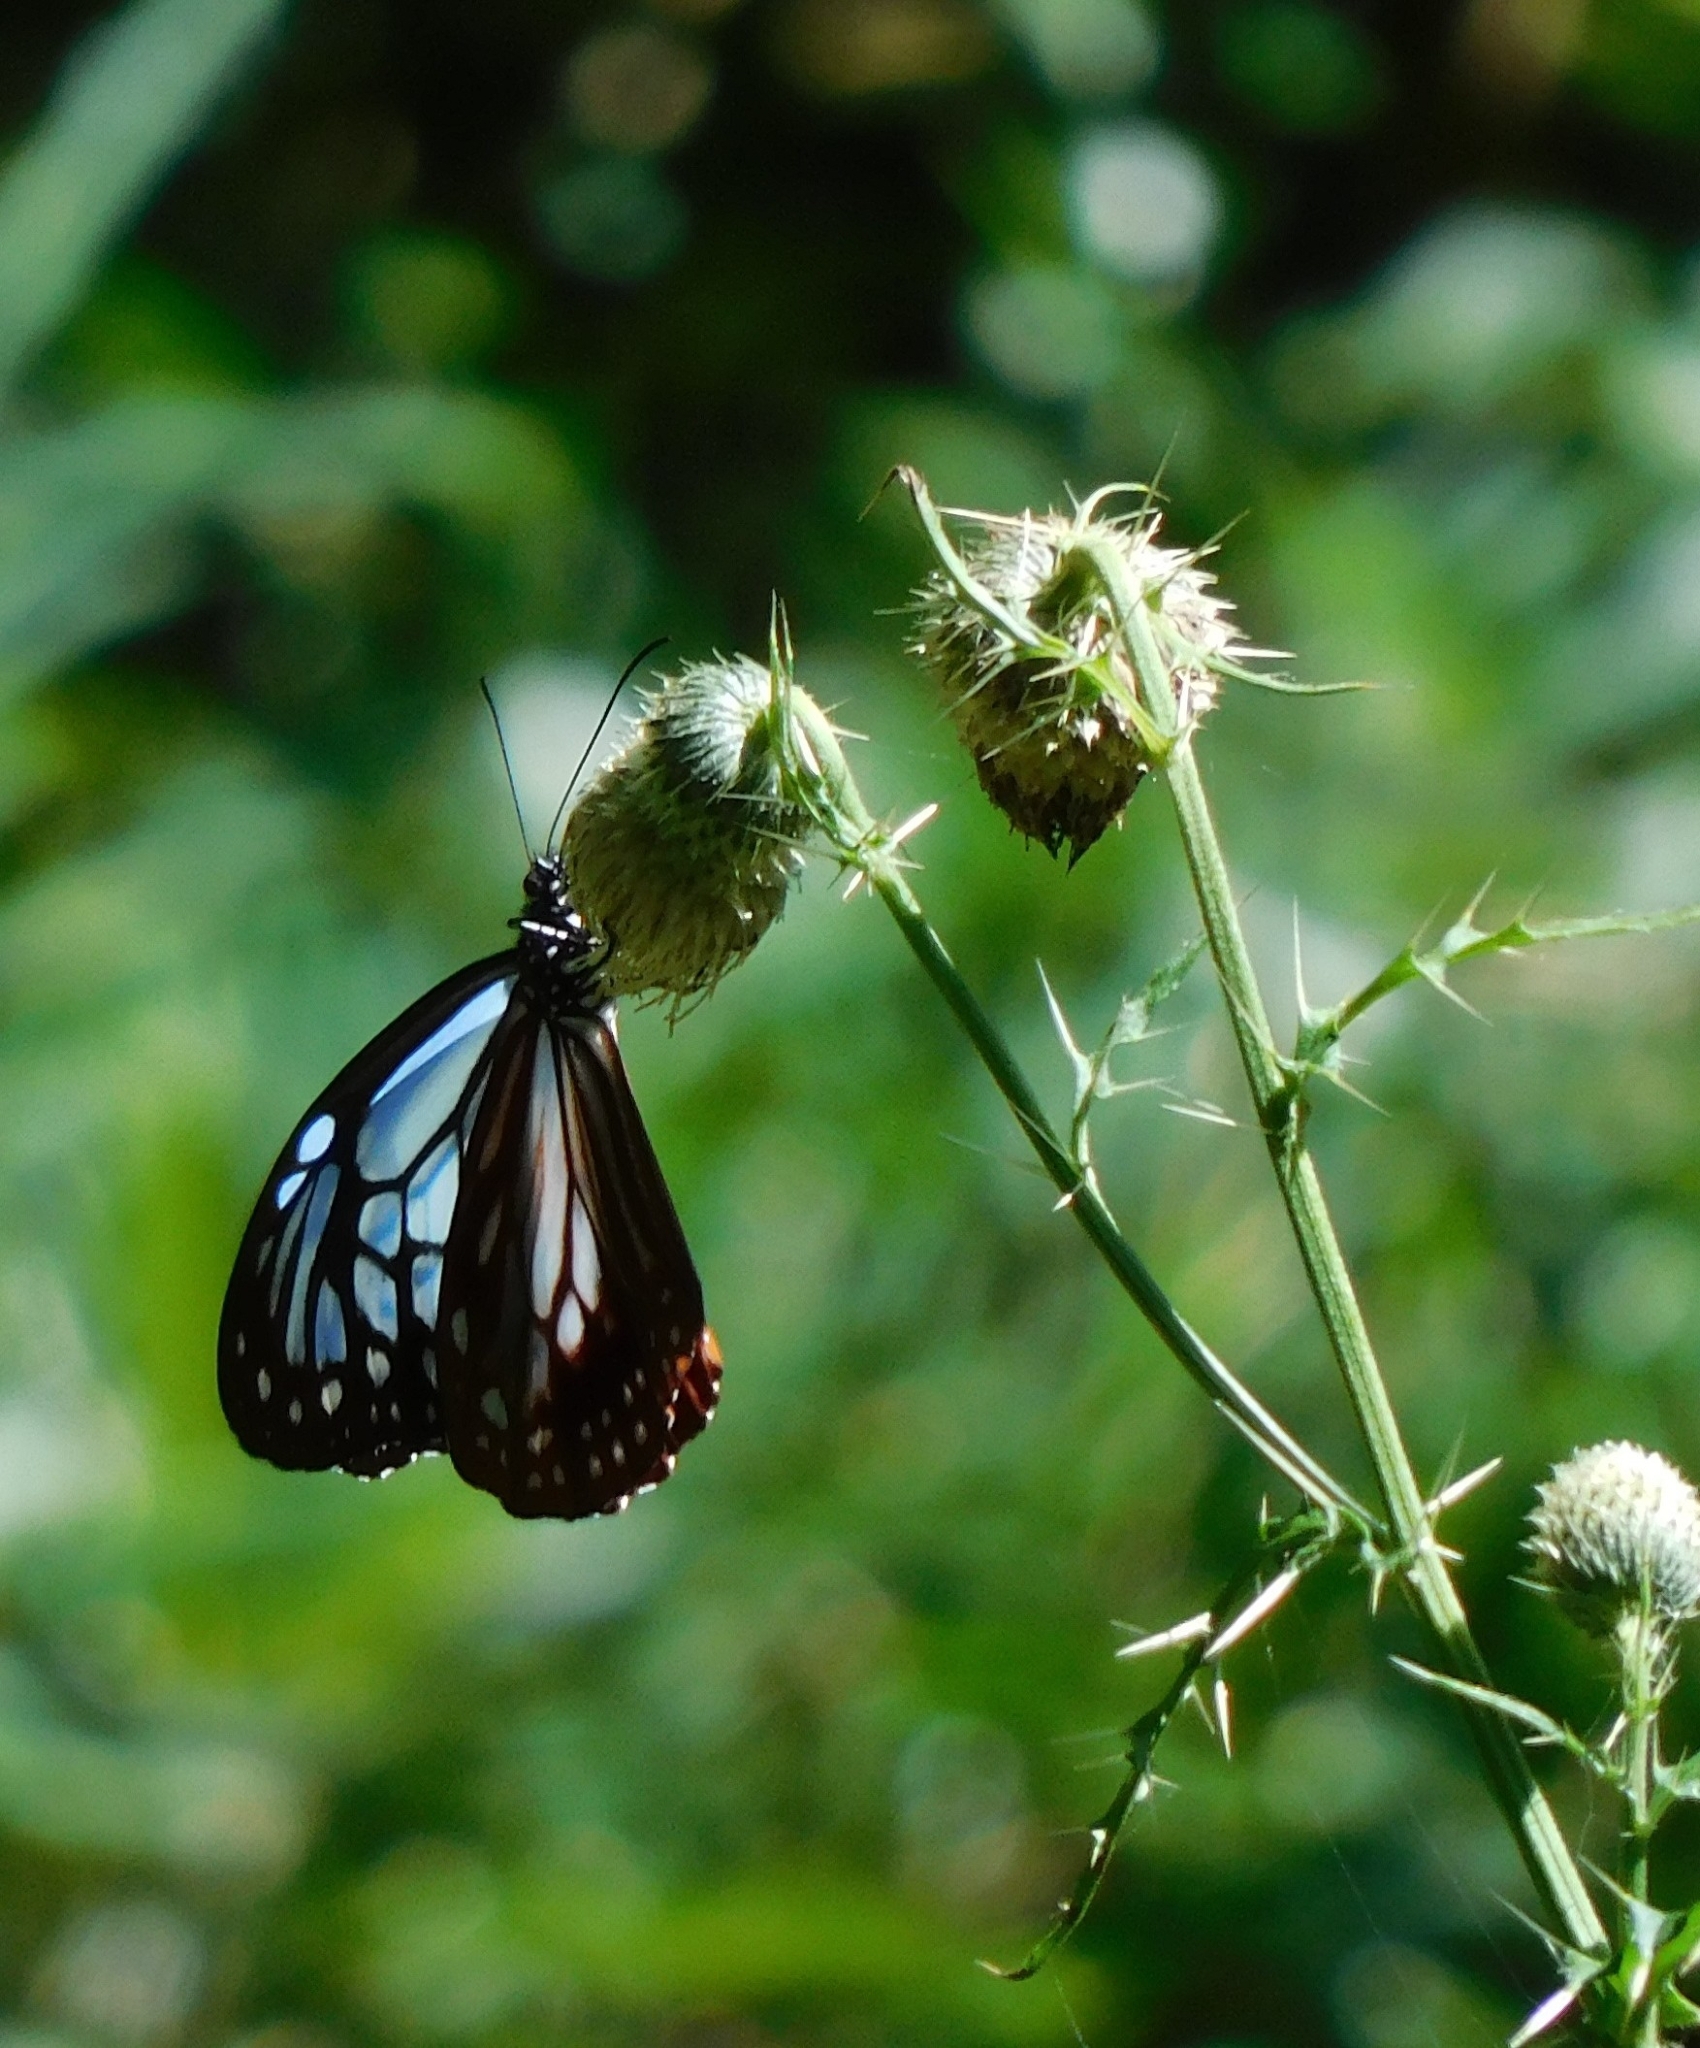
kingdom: Animalia
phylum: Arthropoda
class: Insecta
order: Lepidoptera
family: Nymphalidae
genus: Parantica
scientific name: Parantica sita
